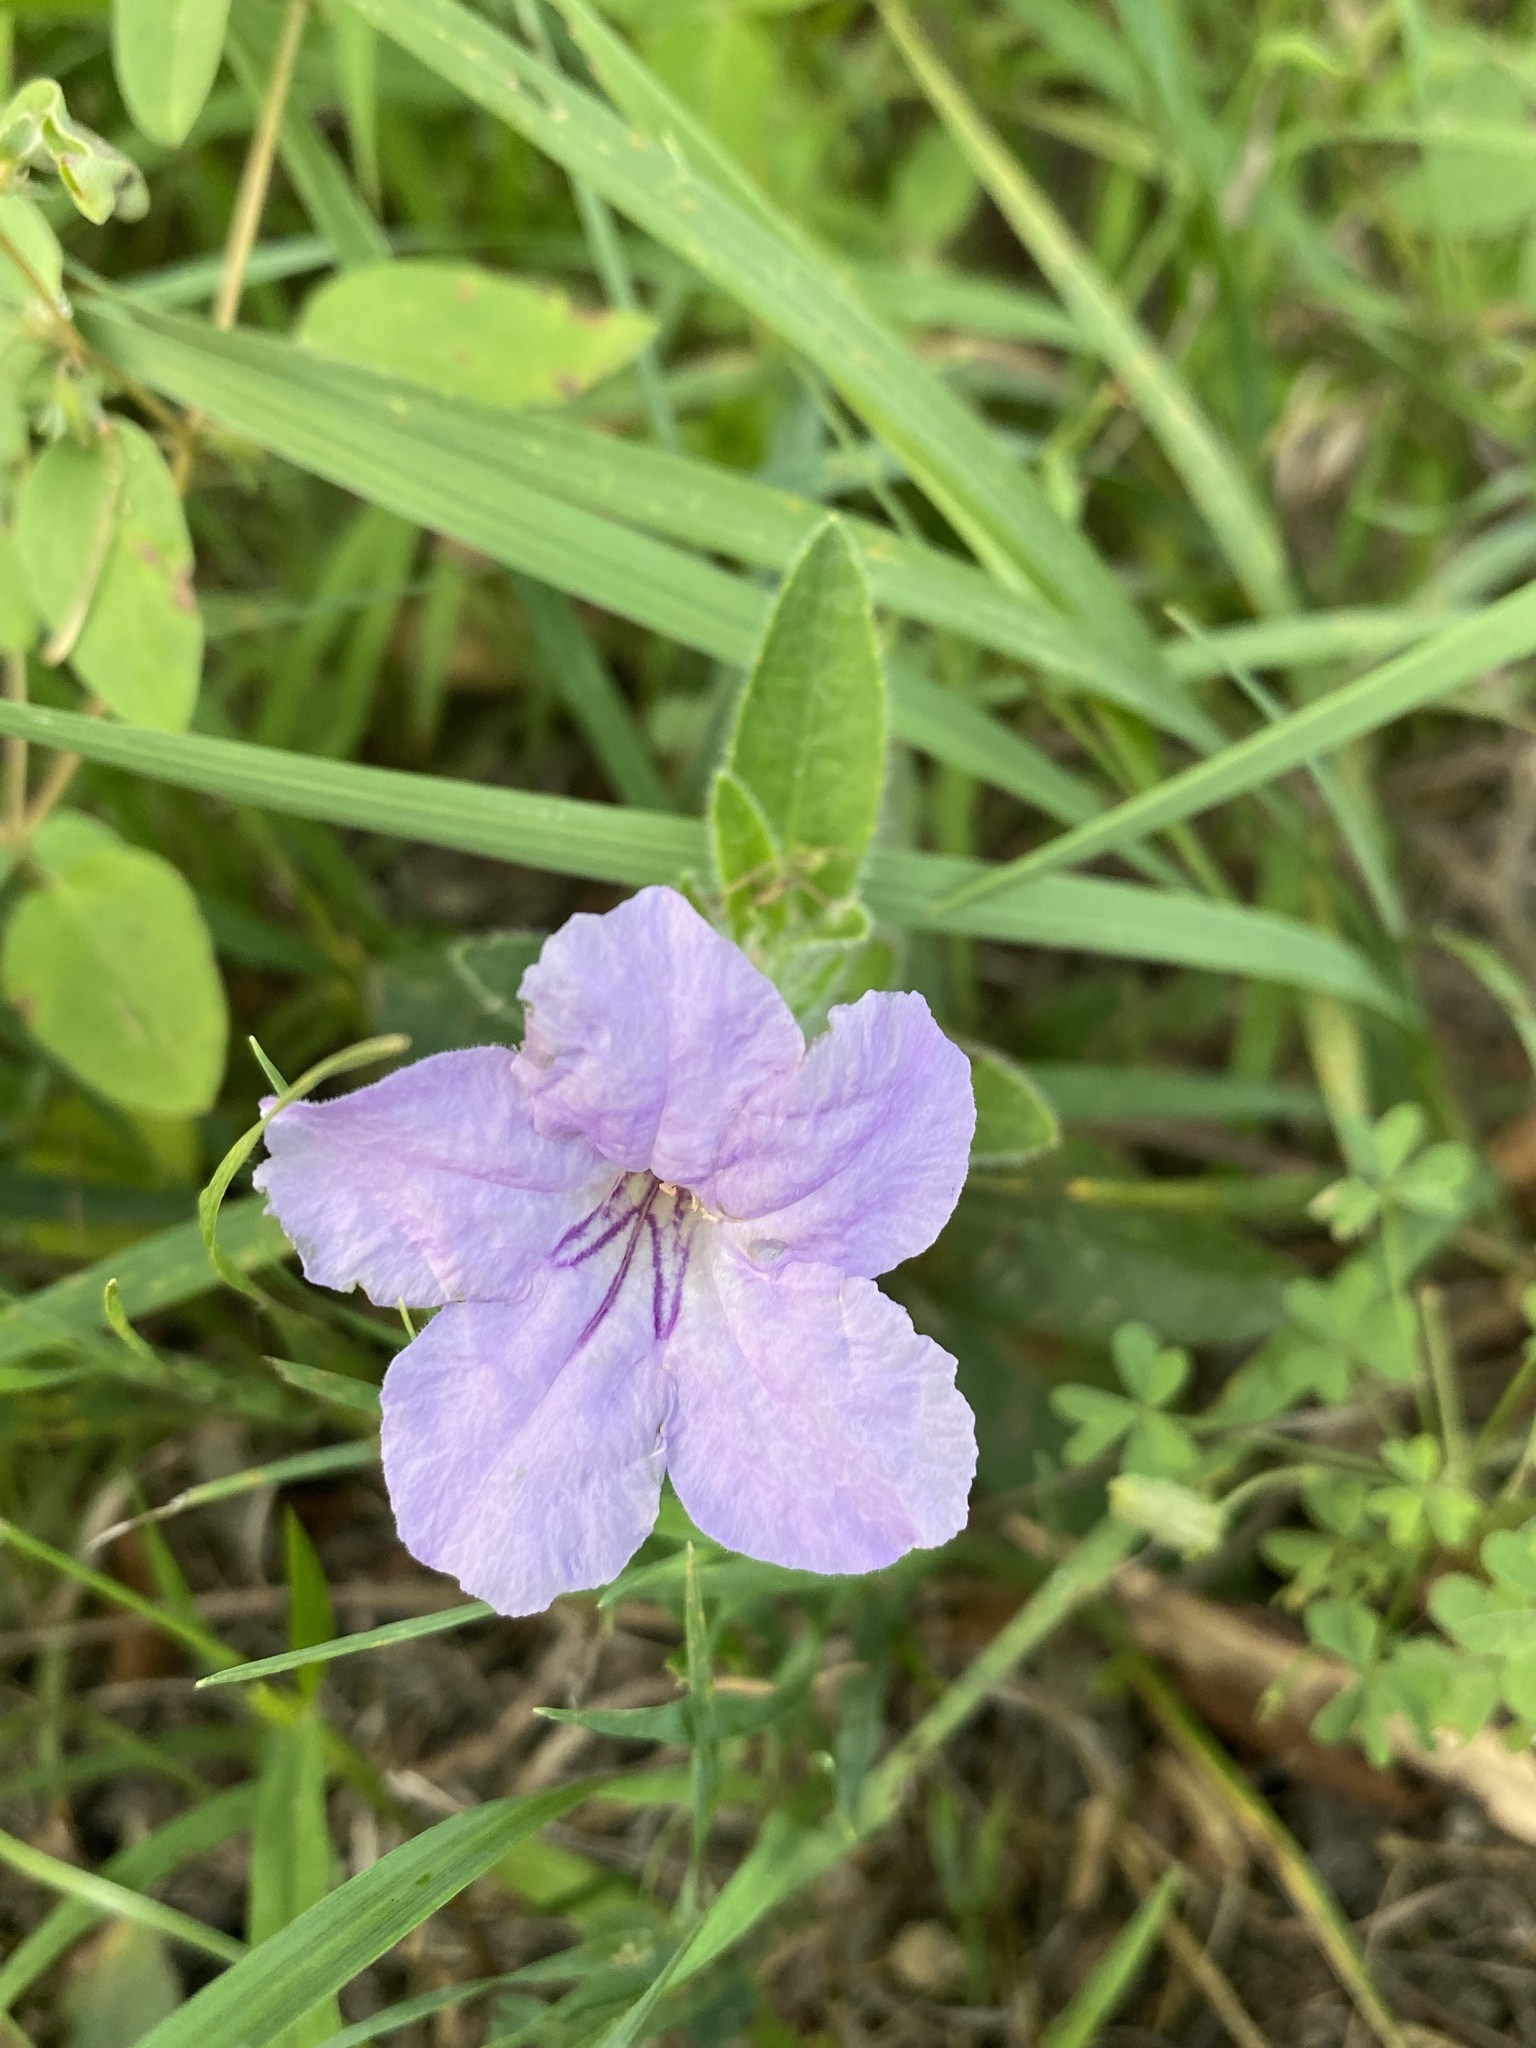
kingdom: Plantae
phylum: Tracheophyta
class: Magnoliopsida
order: Lamiales
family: Acanthaceae
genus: Ruellia
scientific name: Ruellia humilis
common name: Fringe-leaf ruellia
